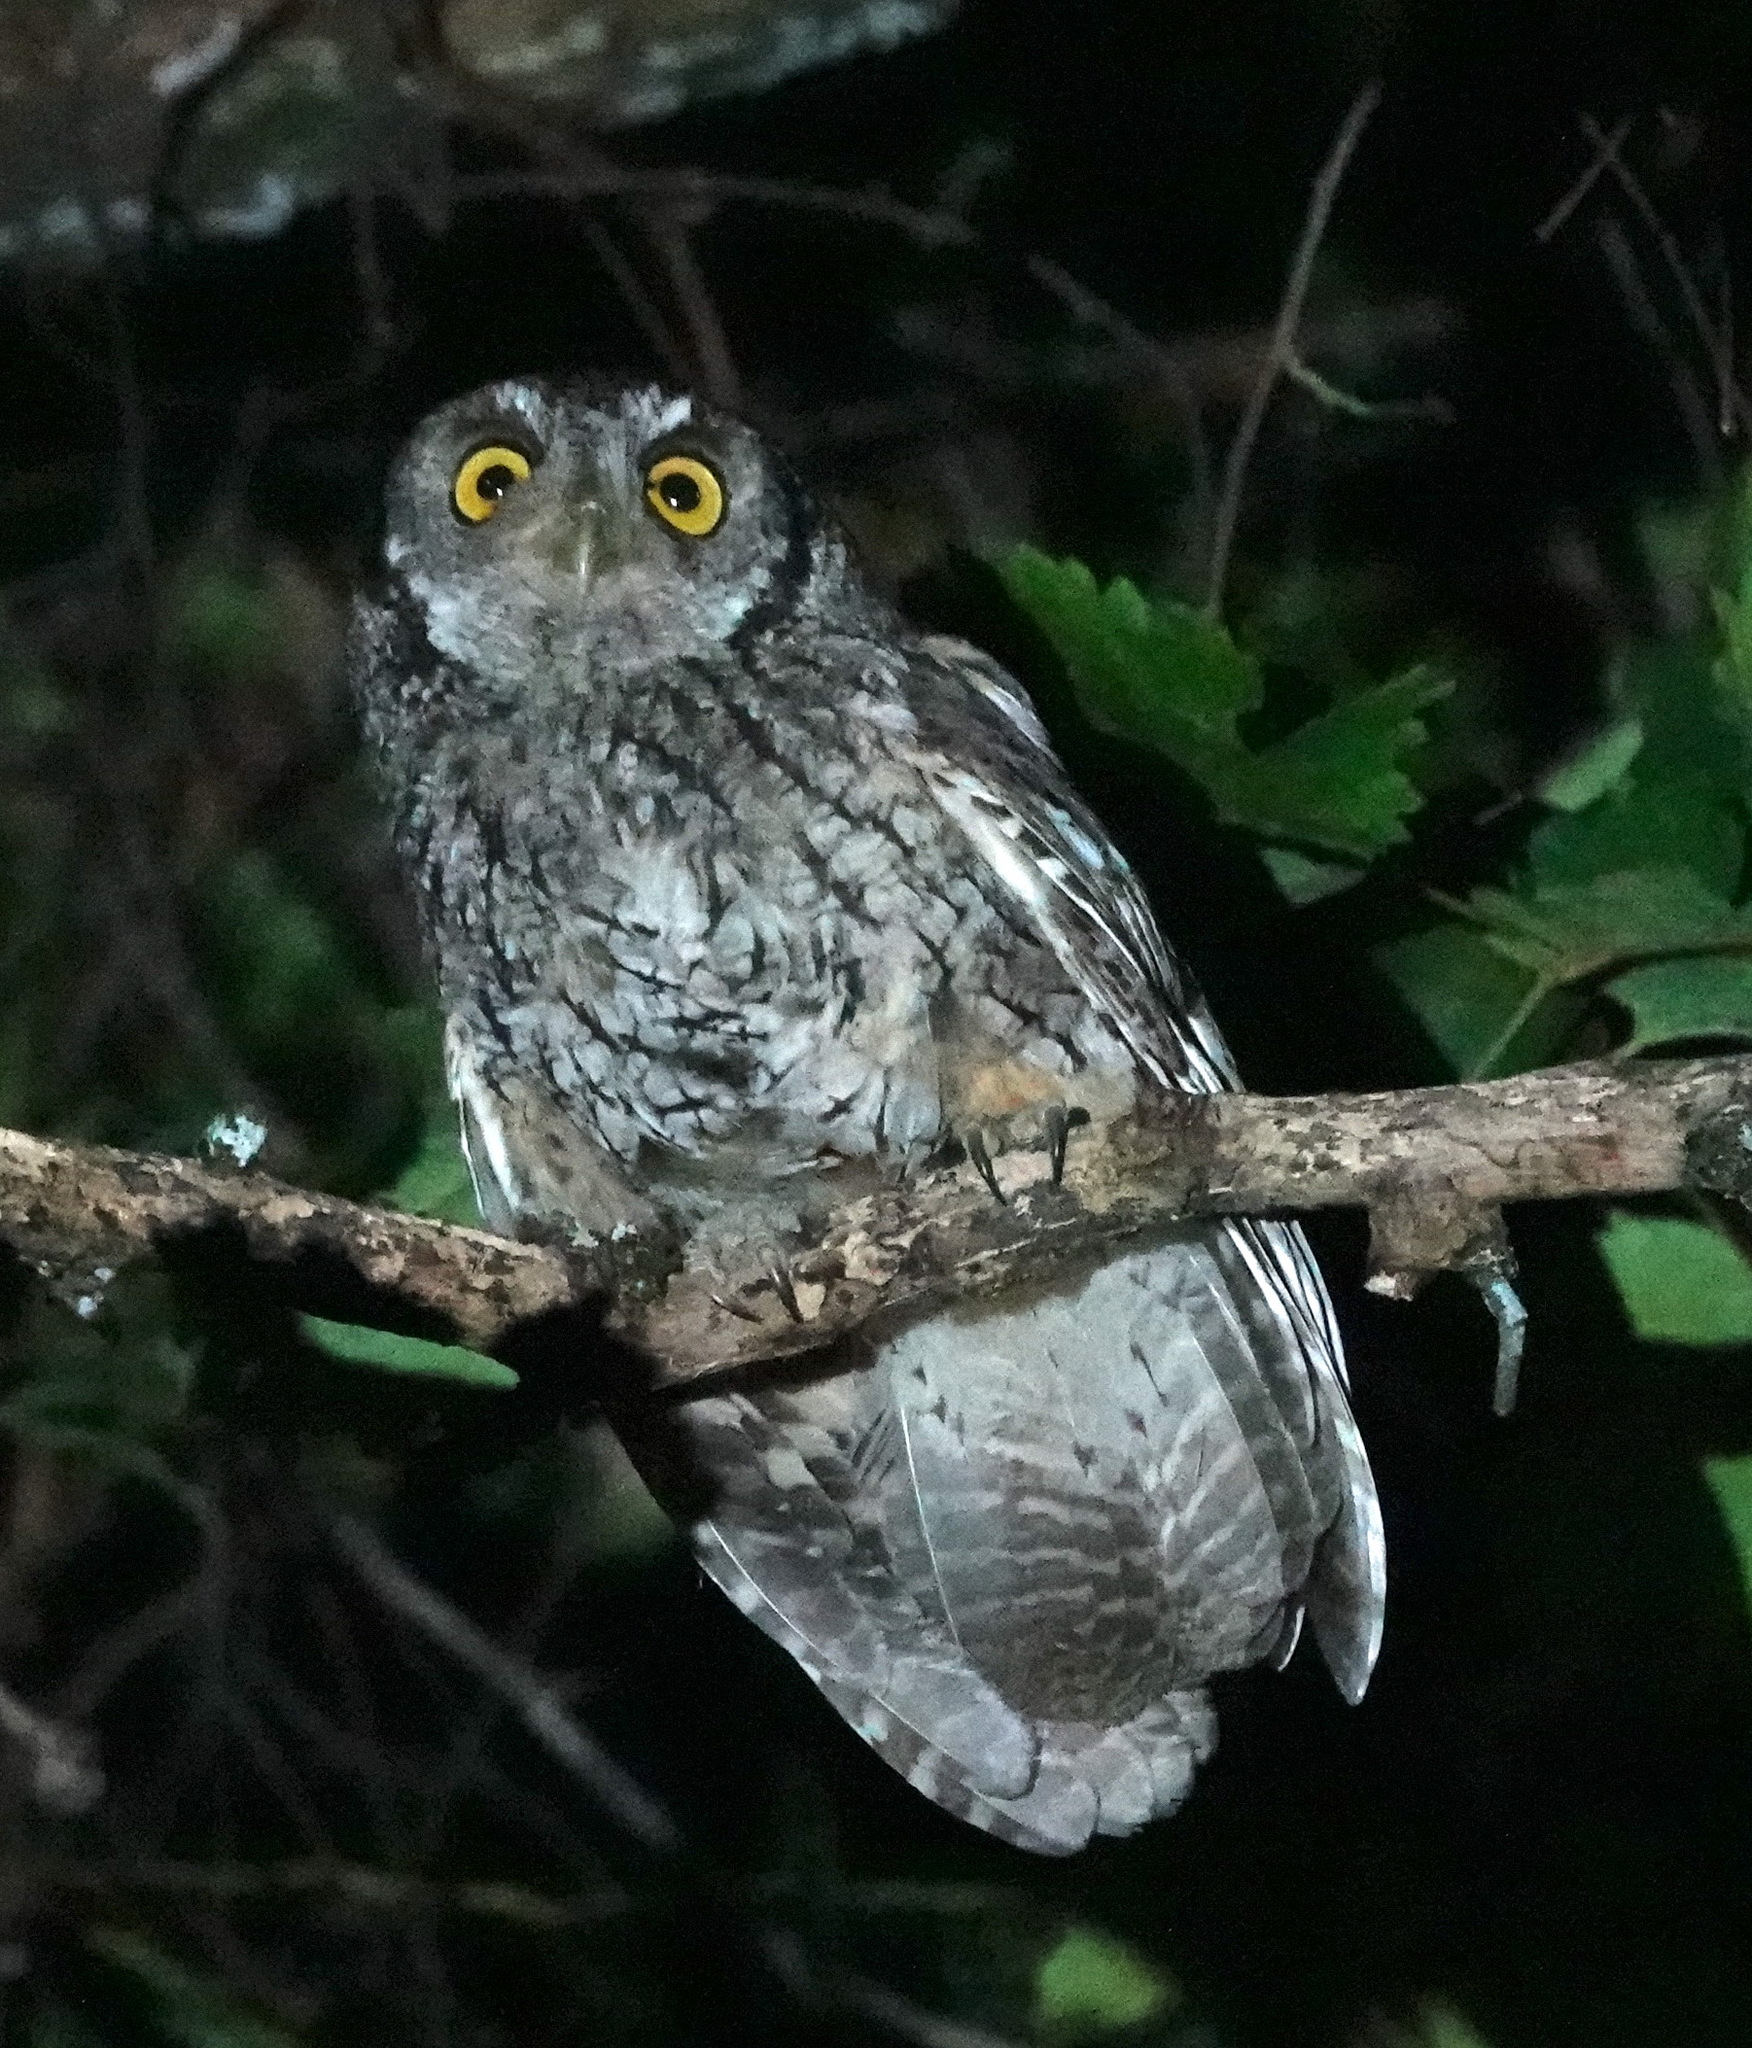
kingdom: Animalia
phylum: Chordata
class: Aves
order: Strigiformes
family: Strigidae
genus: Megascops
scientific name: Megascops koepckeae
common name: Koepcke's screech owl
